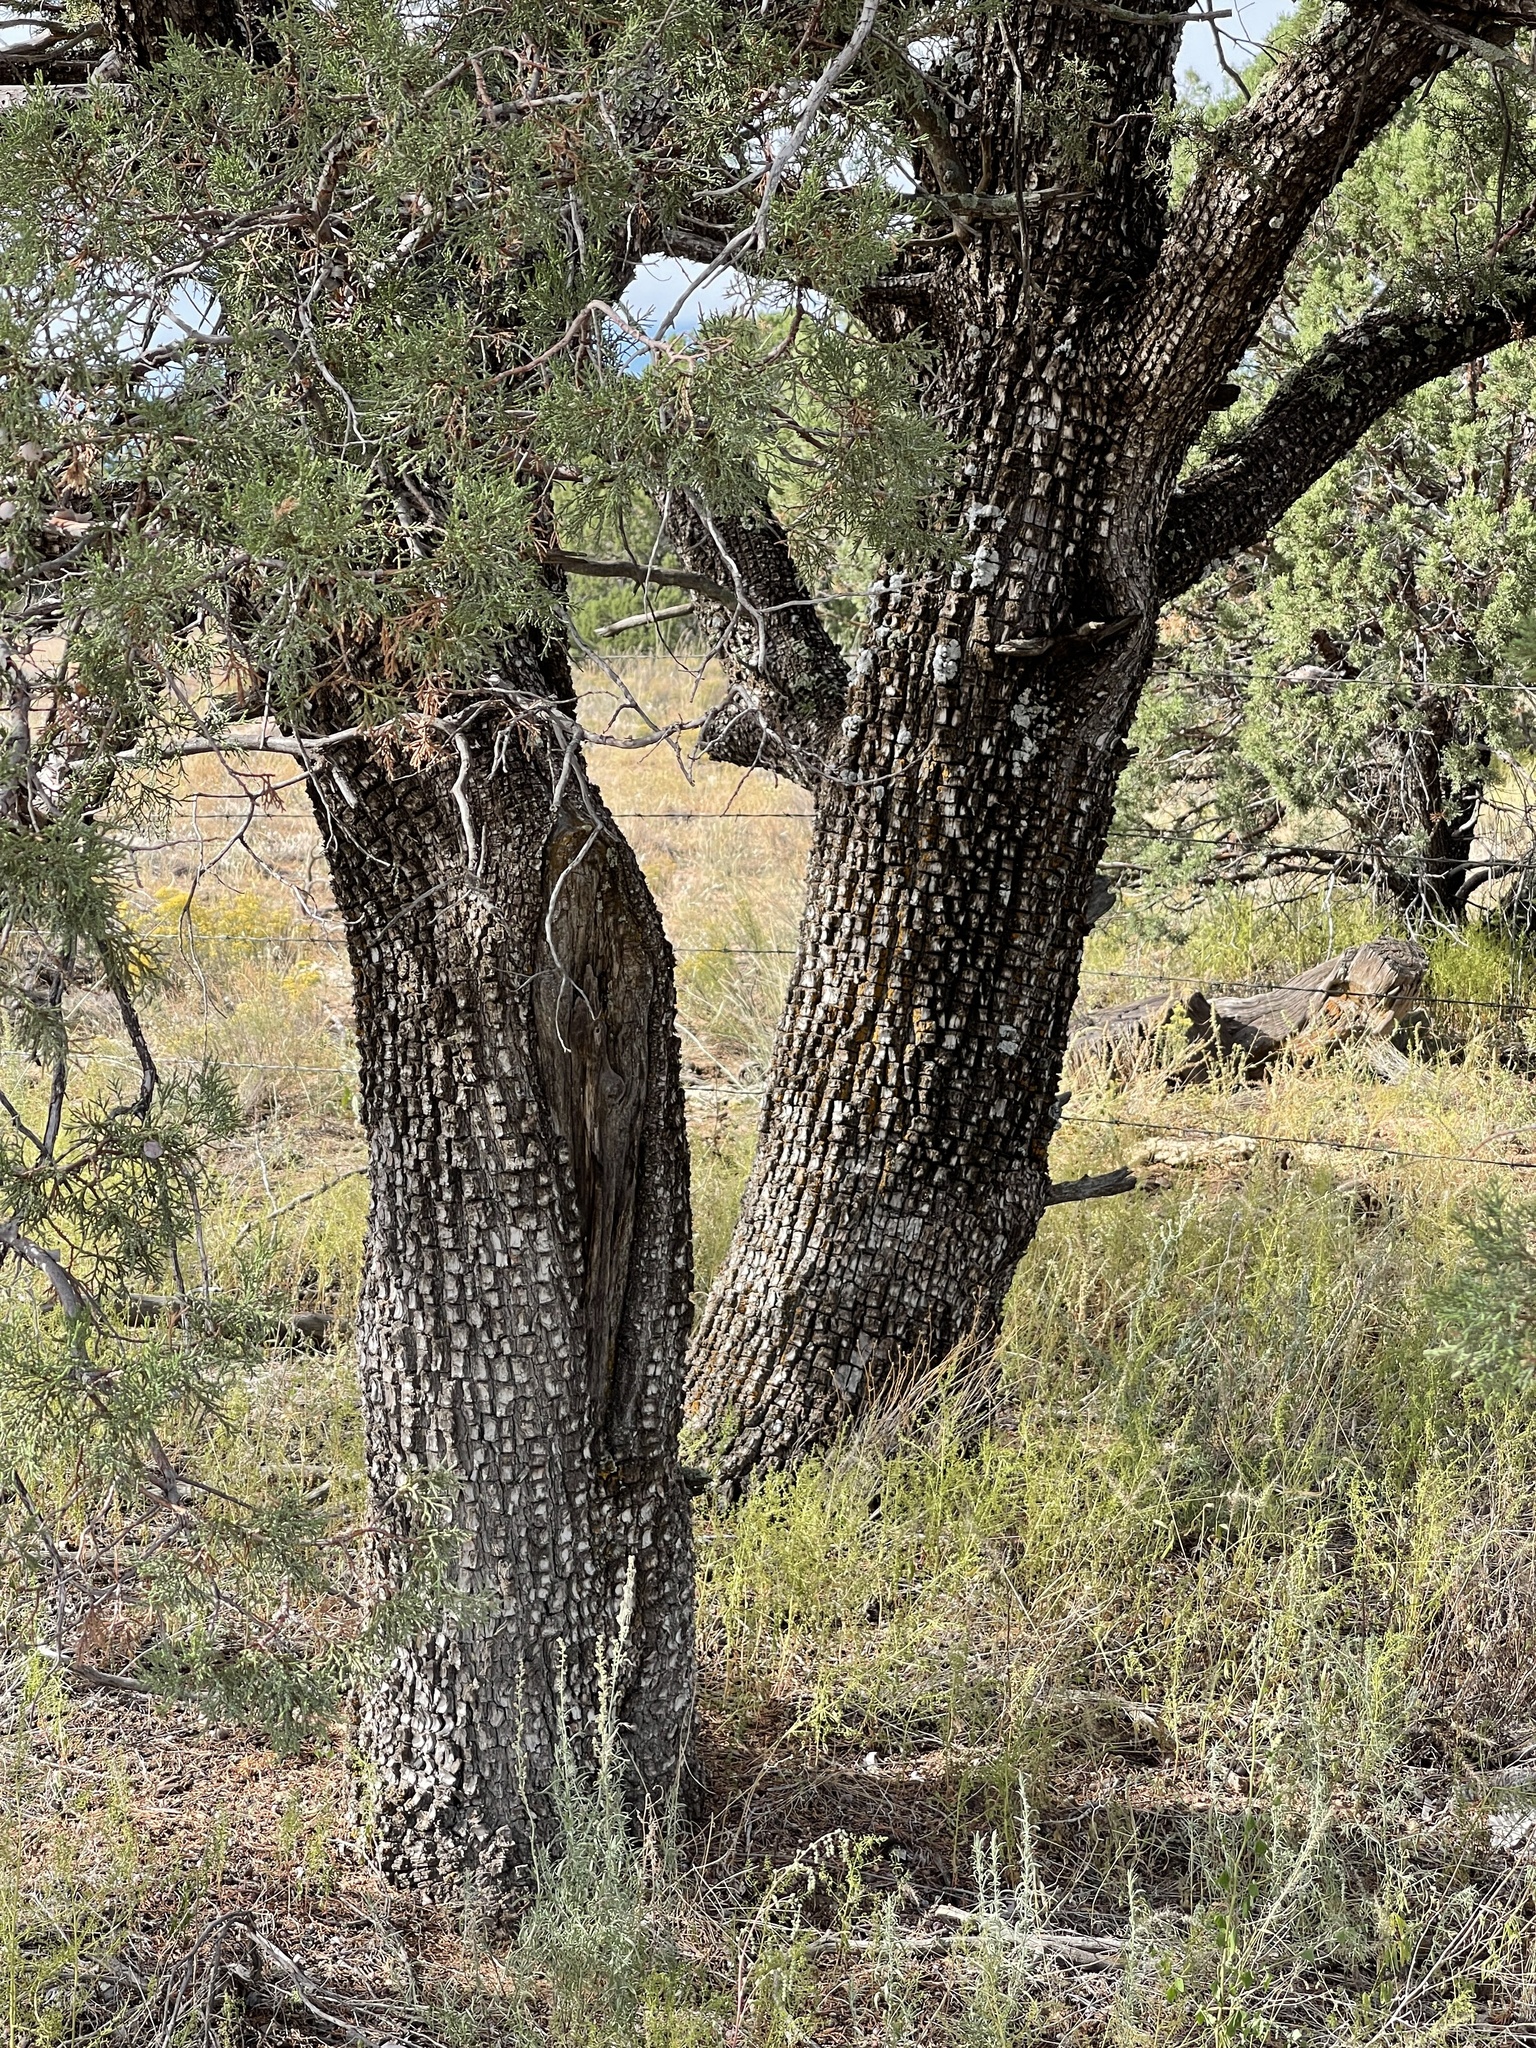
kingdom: Plantae
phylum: Tracheophyta
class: Pinopsida
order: Pinales
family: Cupressaceae
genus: Juniperus
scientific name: Juniperus deppeana
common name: Alligator juniper
